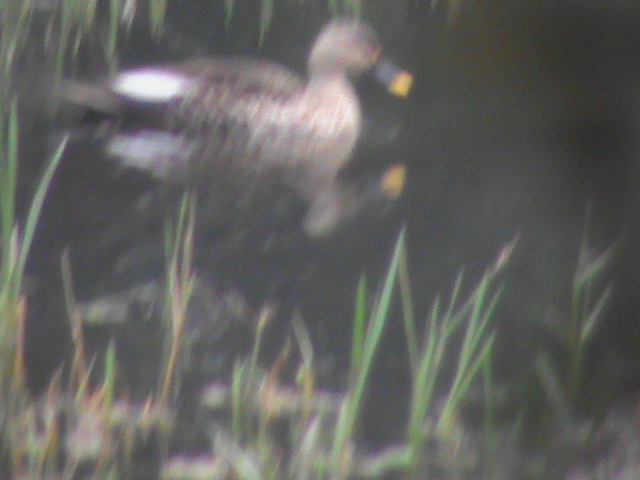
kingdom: Animalia
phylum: Chordata
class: Aves
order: Anseriformes
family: Anatidae
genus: Anas
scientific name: Anas poecilorhyncha
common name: Indian spot-billed duck
